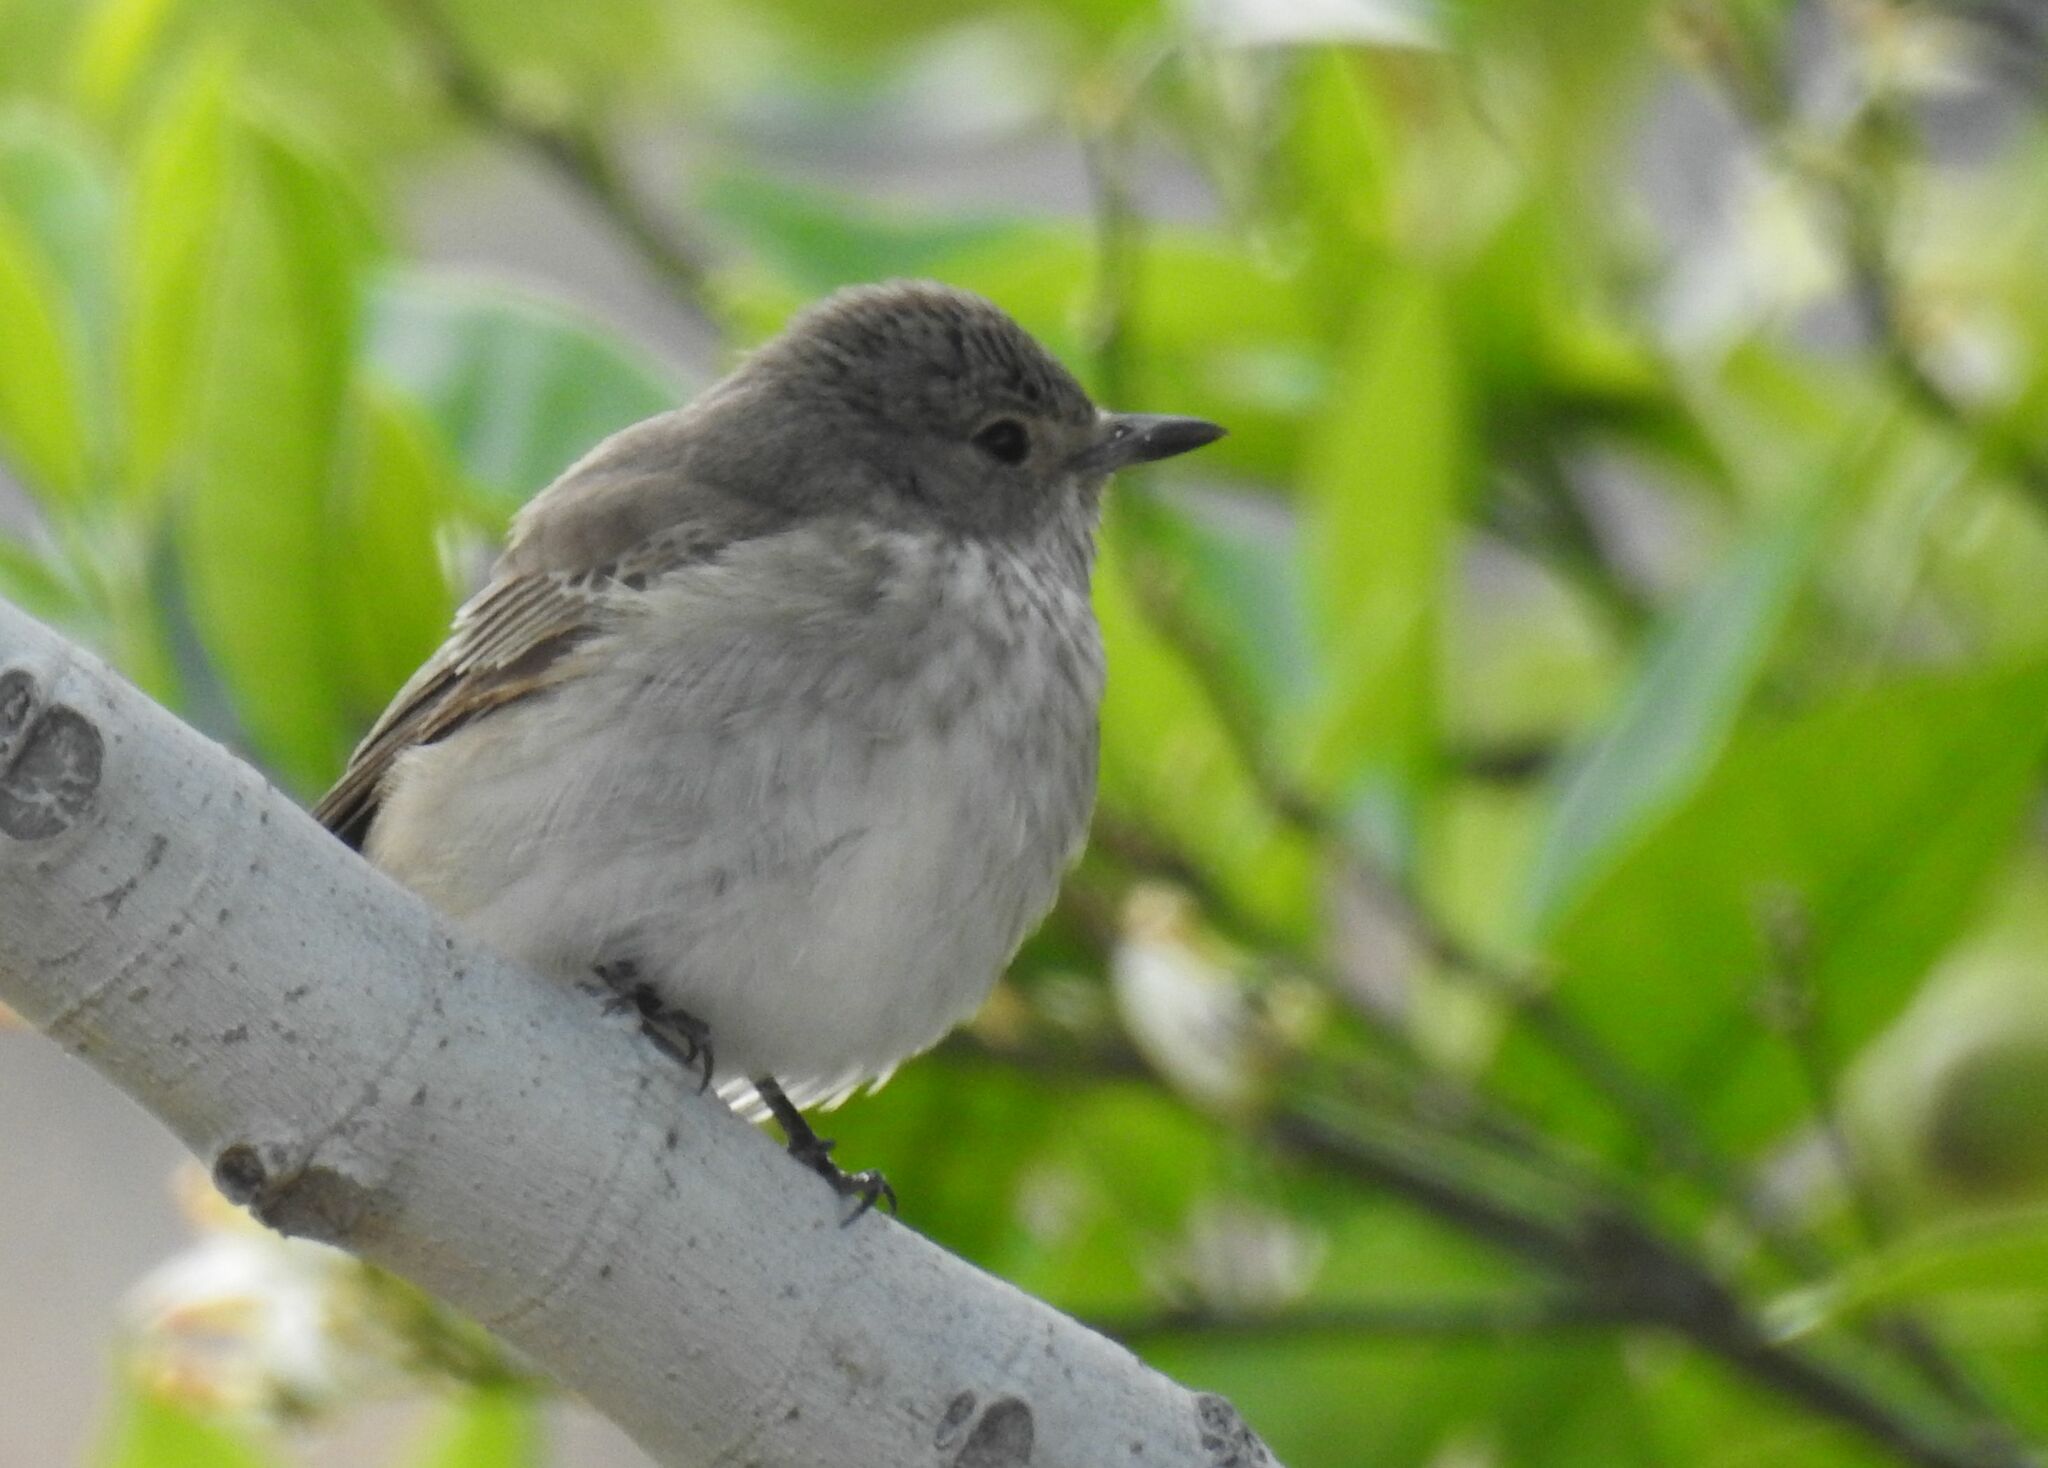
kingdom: Animalia
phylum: Chordata
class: Aves
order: Passeriformes
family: Muscicapidae
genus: Muscicapa
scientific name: Muscicapa striata
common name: Spotted flycatcher
